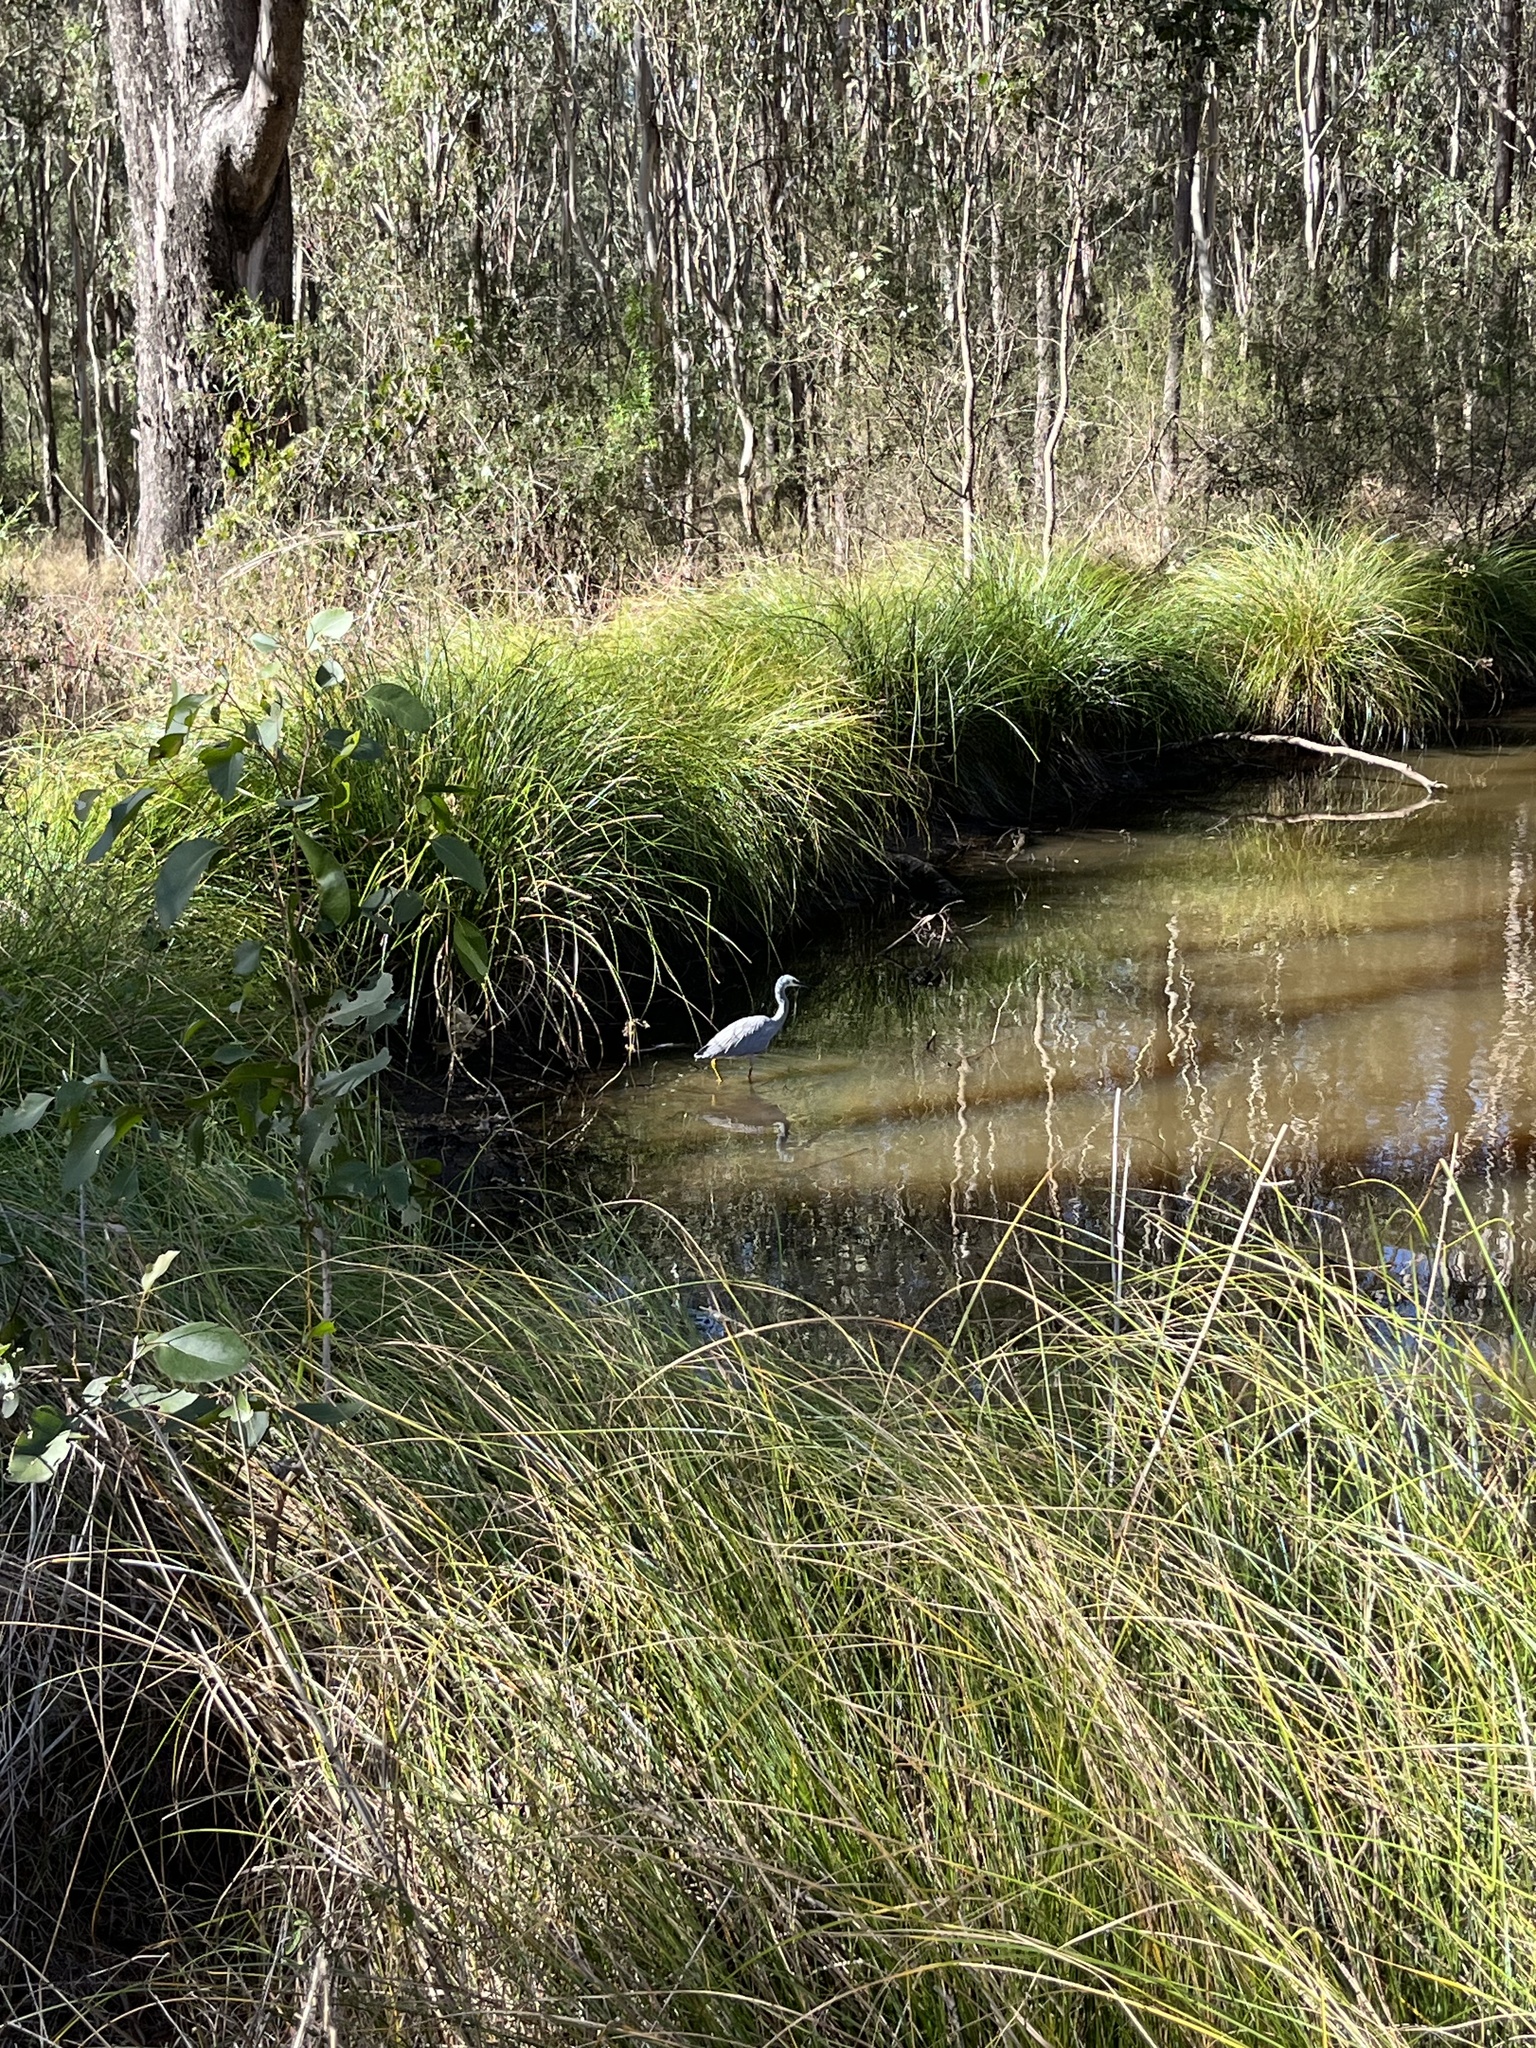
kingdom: Animalia
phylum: Chordata
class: Aves
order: Pelecaniformes
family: Ardeidae
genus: Egretta
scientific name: Egretta novaehollandiae
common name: White-faced heron
